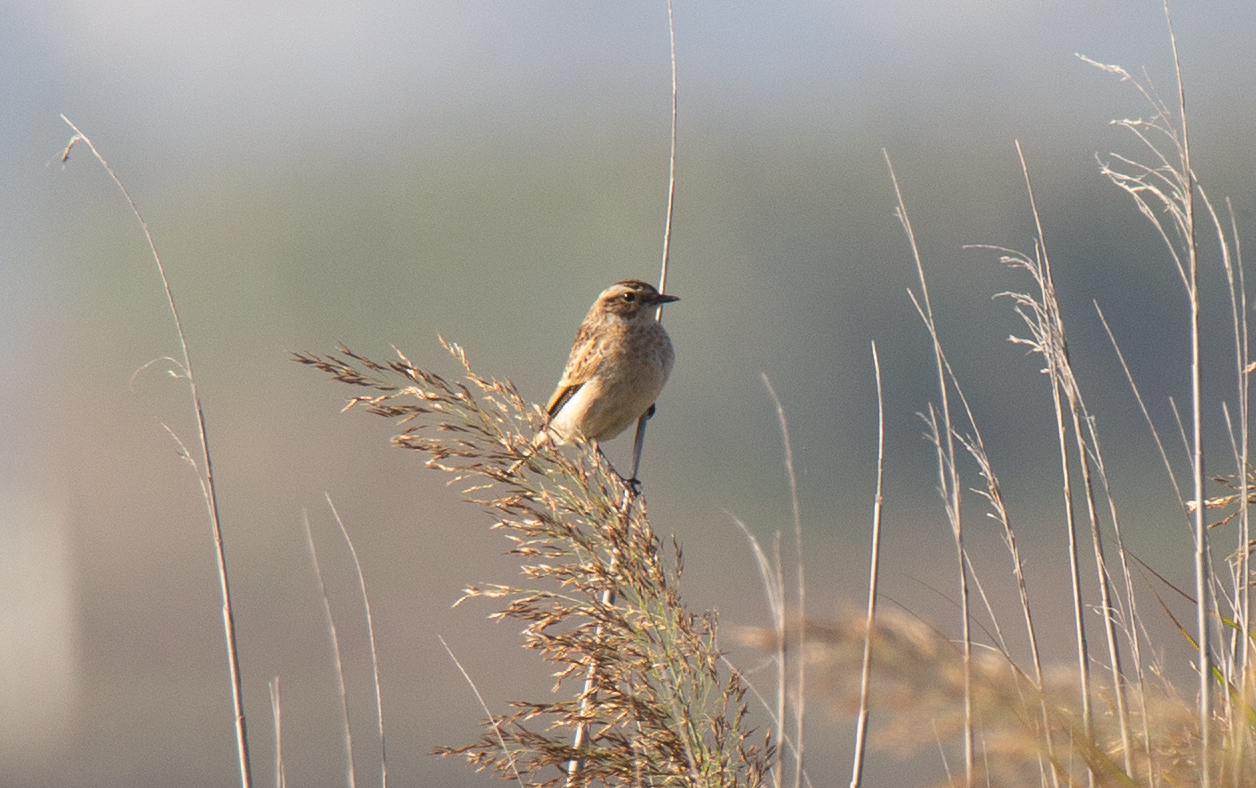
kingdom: Animalia
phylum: Chordata
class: Aves
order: Passeriformes
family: Muscicapidae
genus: Saxicola
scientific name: Saxicola rubetra
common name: Whinchat
